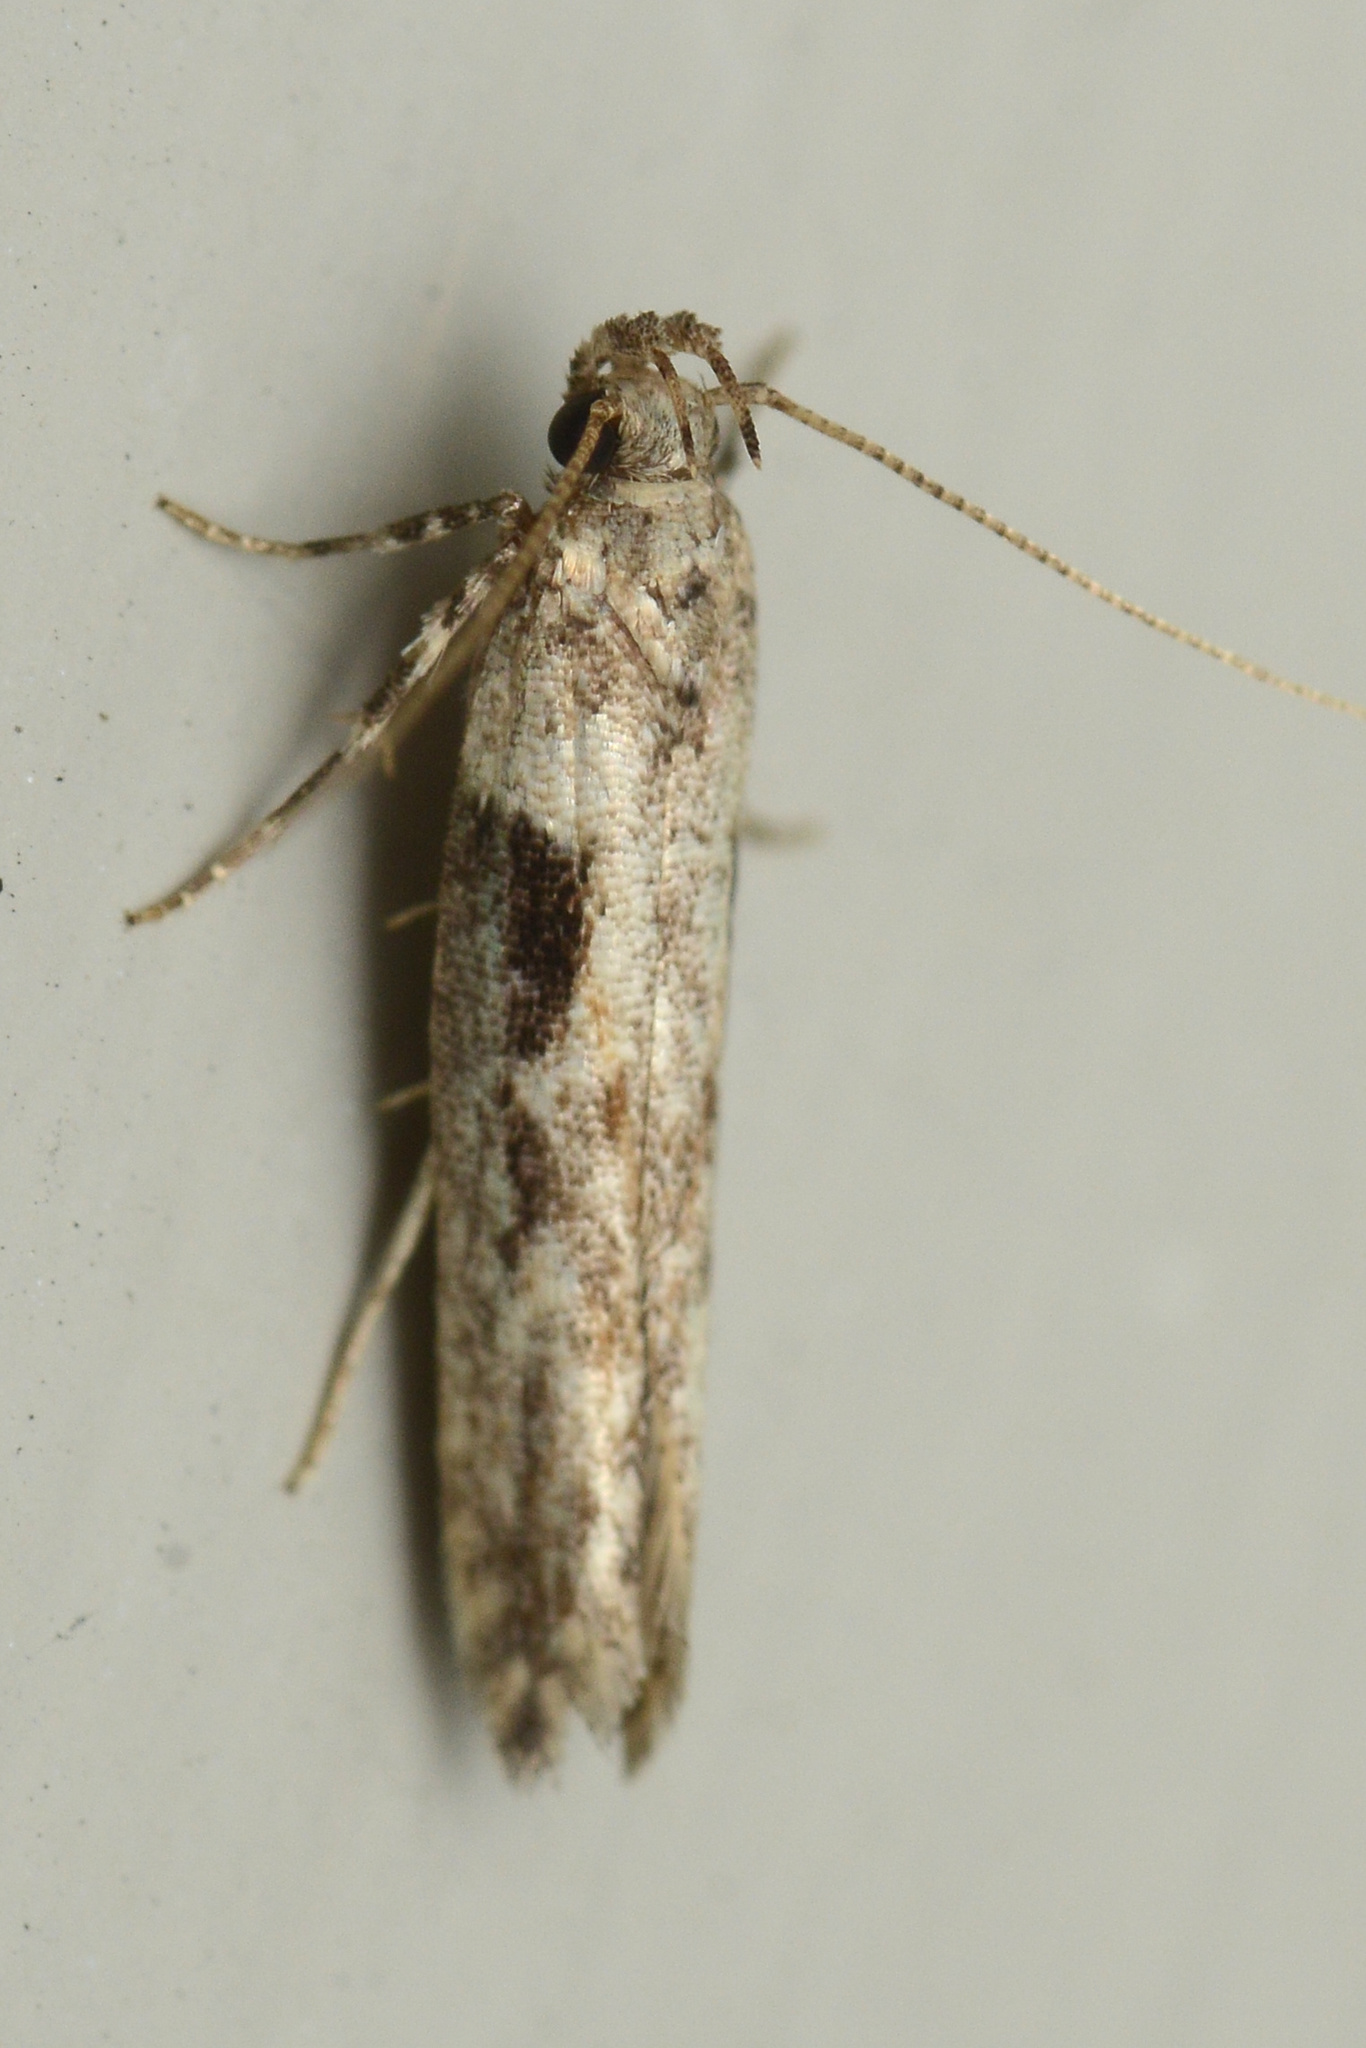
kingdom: Animalia
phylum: Arthropoda
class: Insecta
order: Lepidoptera
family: Gelechiidae
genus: Symmetrischema
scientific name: Symmetrischema tangolias
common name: Moth
